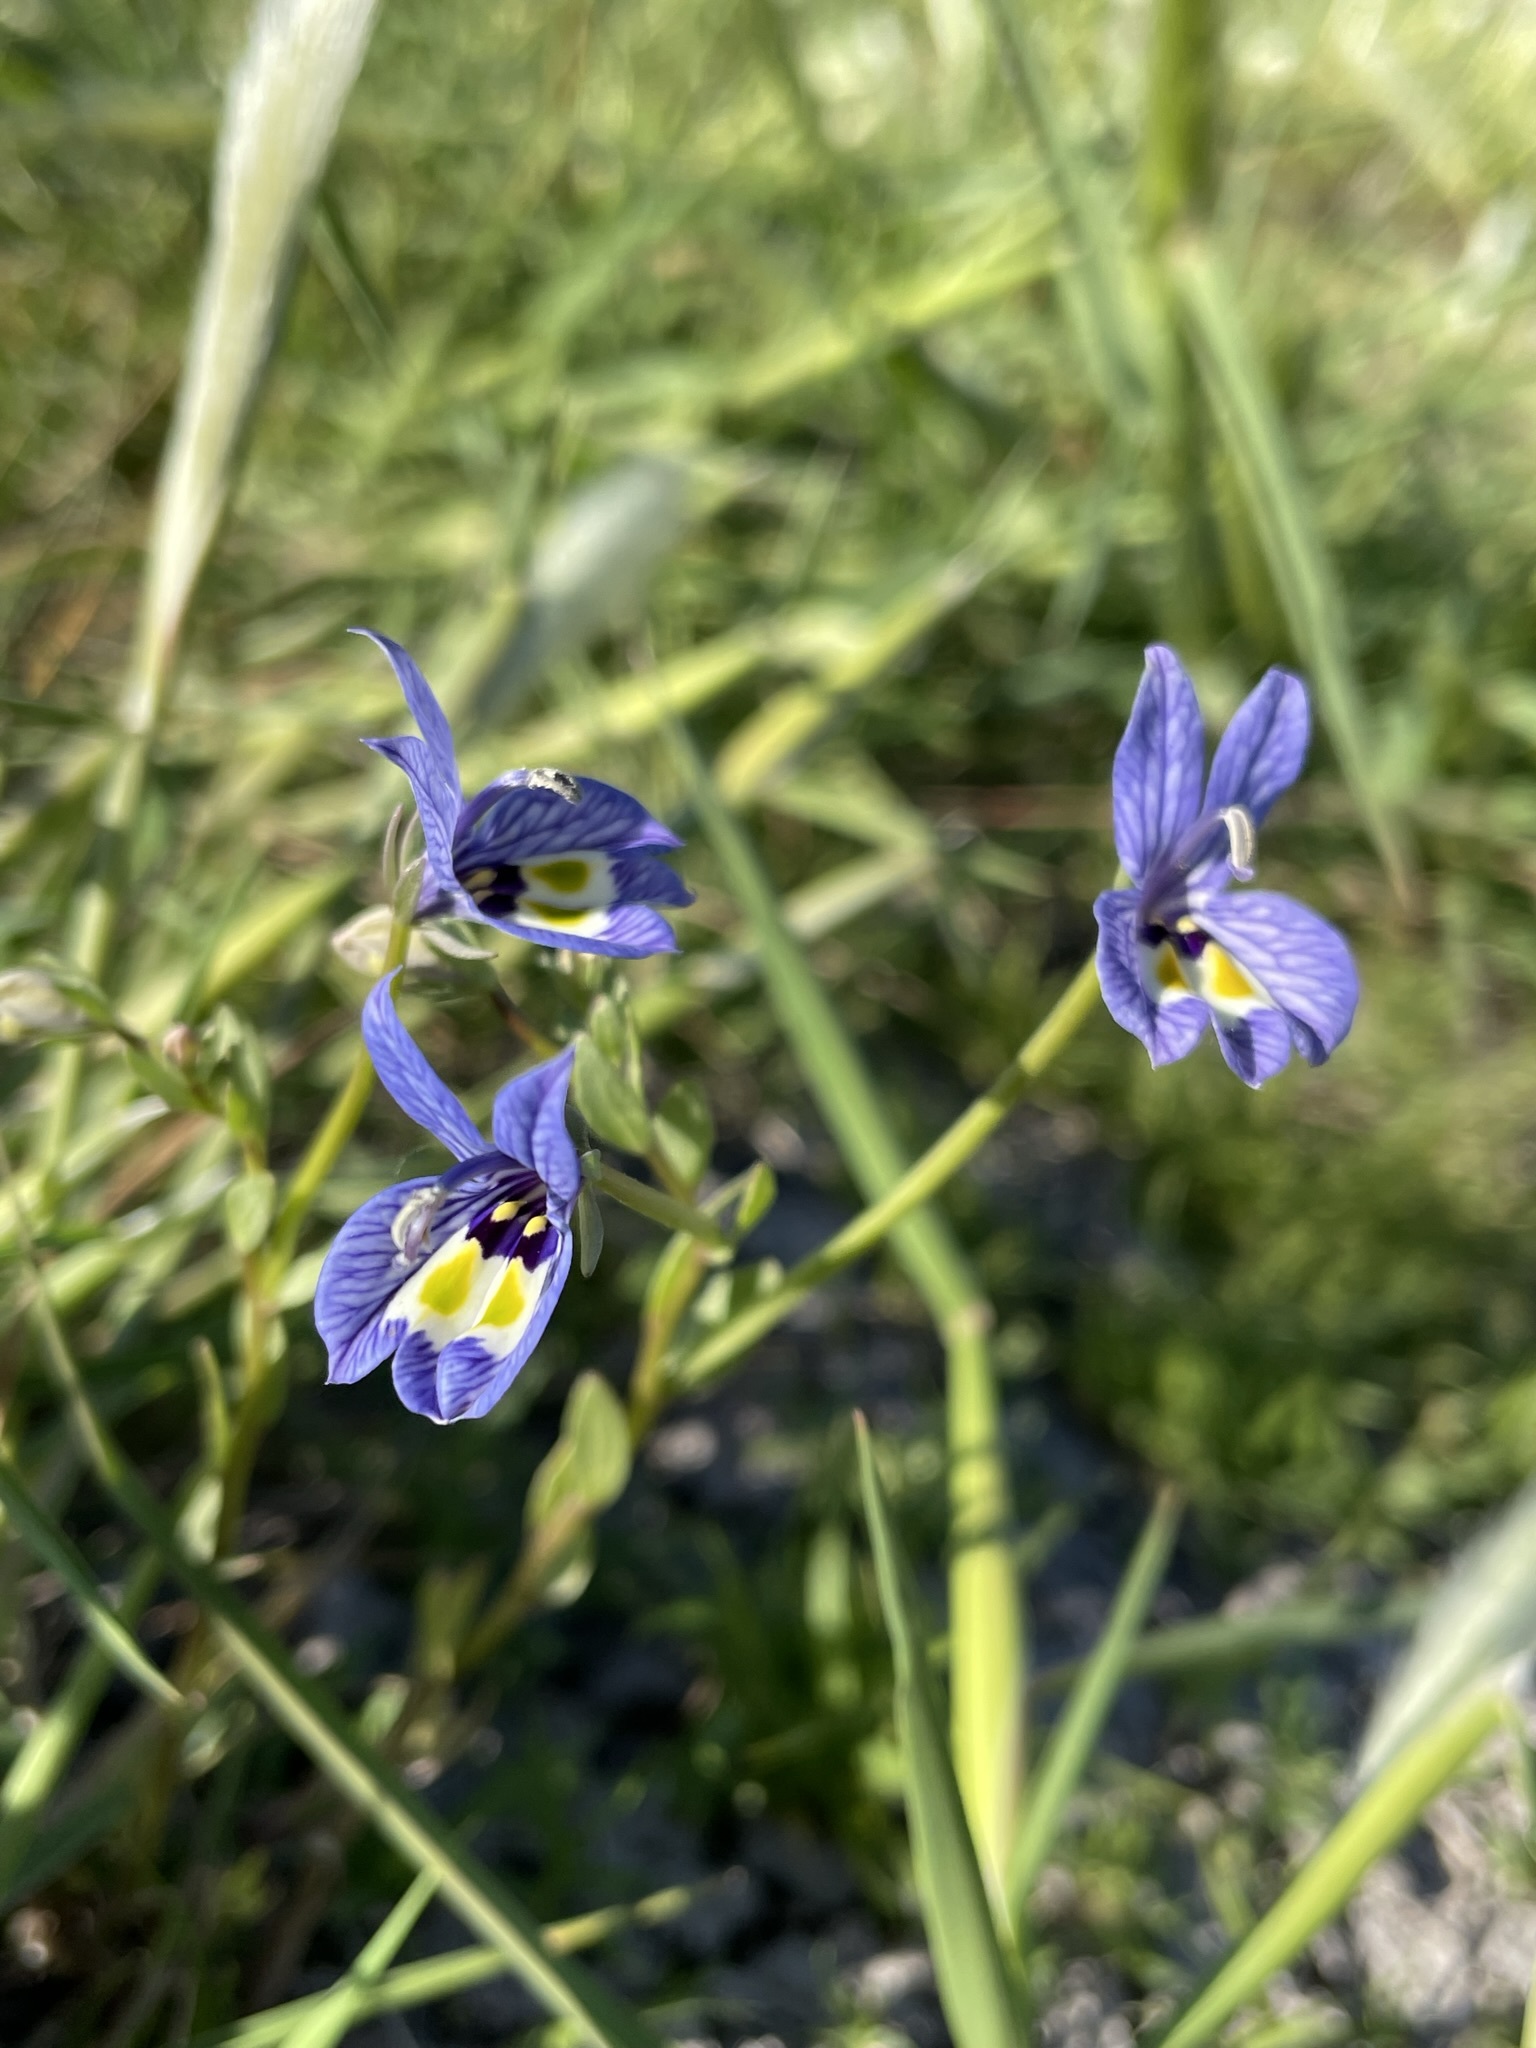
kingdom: Plantae
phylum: Tracheophyta
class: Magnoliopsida
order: Asterales
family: Campanulaceae
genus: Downingia
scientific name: Downingia insignis
